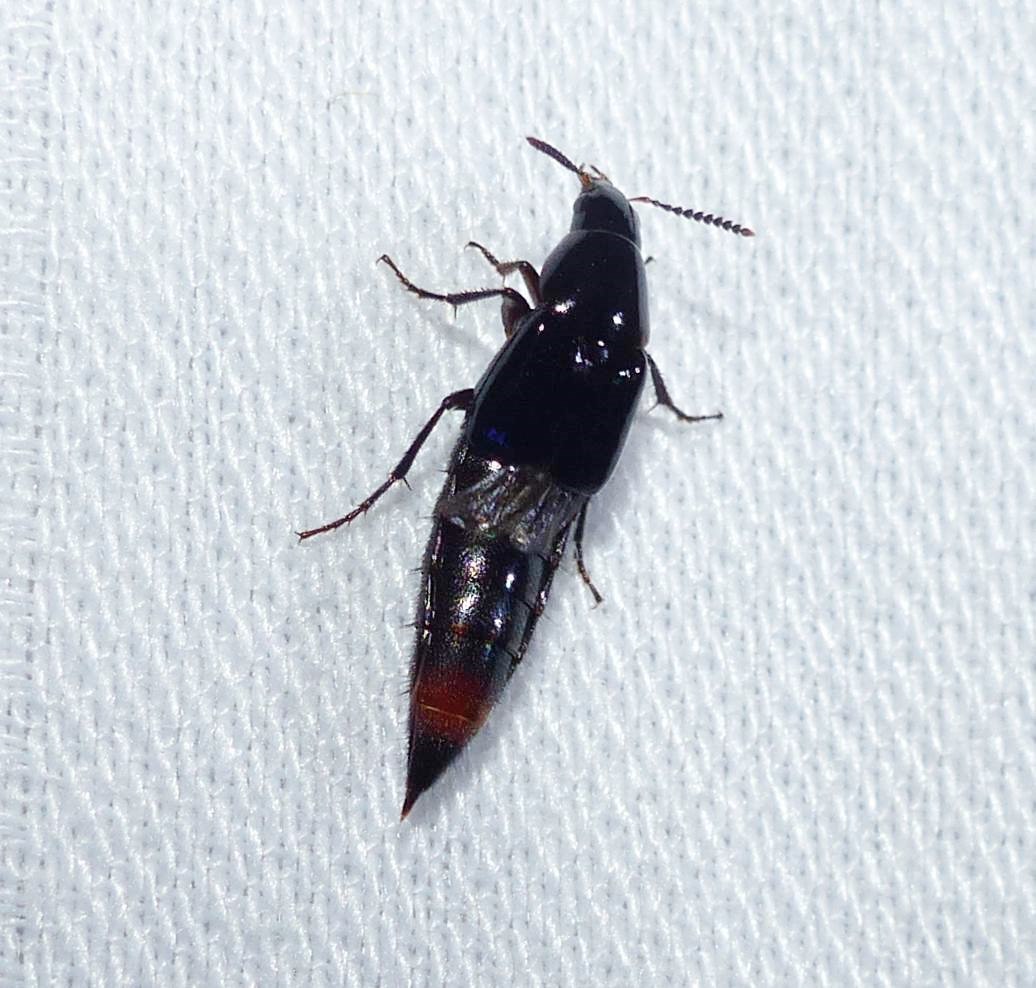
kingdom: Animalia
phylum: Arthropoda
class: Insecta
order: Coleoptera
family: Staphylinidae
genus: Lordithon
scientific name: Lordithon niger
